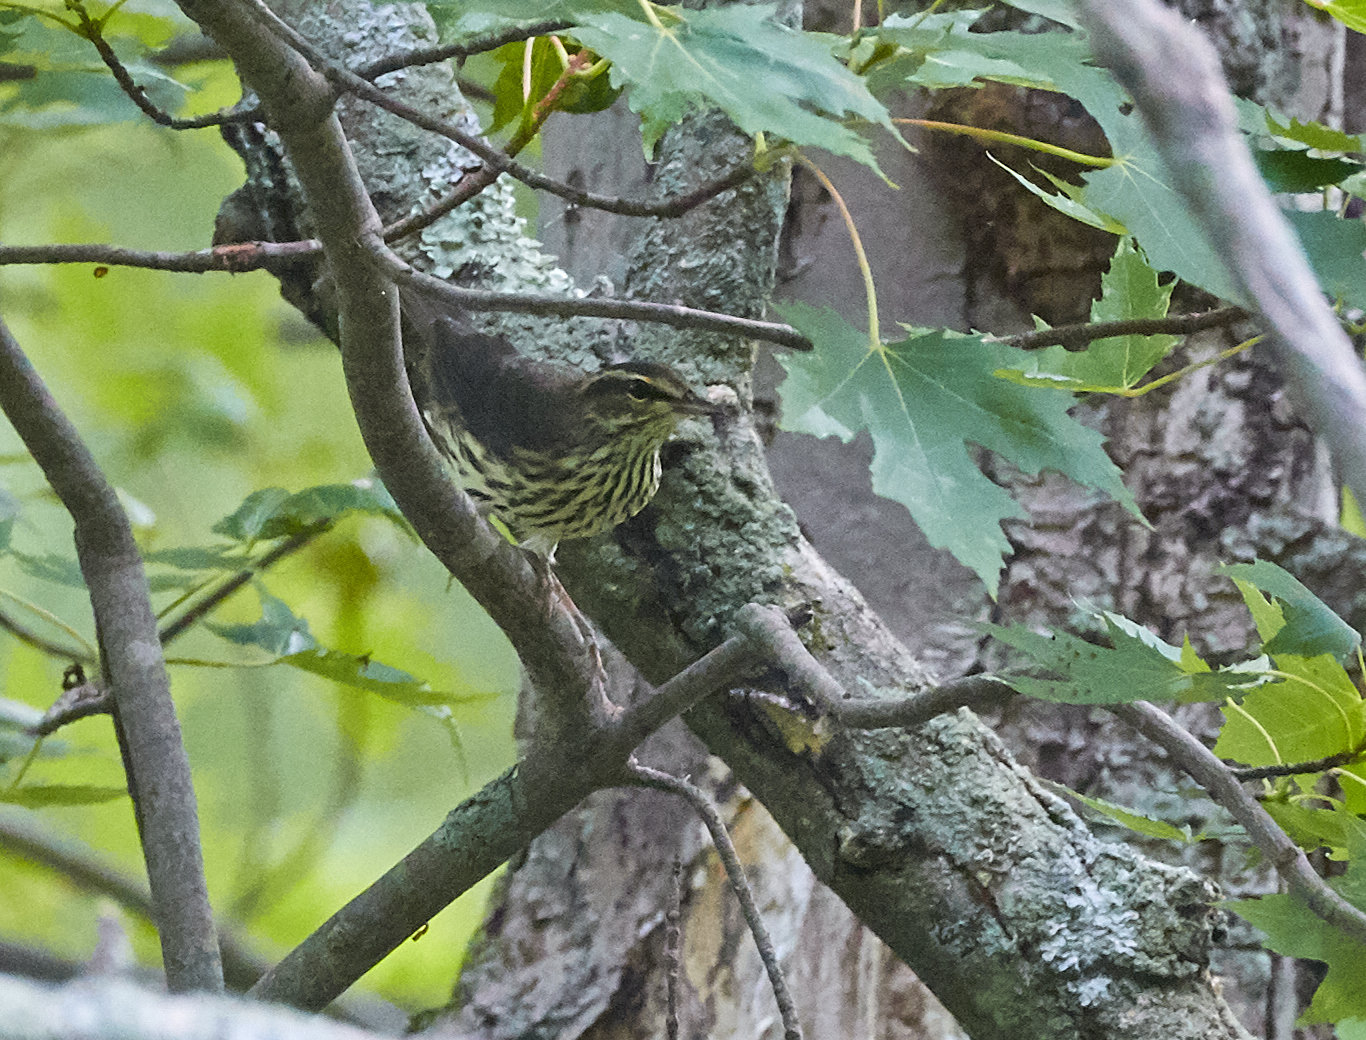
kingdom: Animalia
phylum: Chordata
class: Aves
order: Passeriformes
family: Parulidae
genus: Parkesia
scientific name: Parkesia noveboracensis
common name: Northern waterthrush
